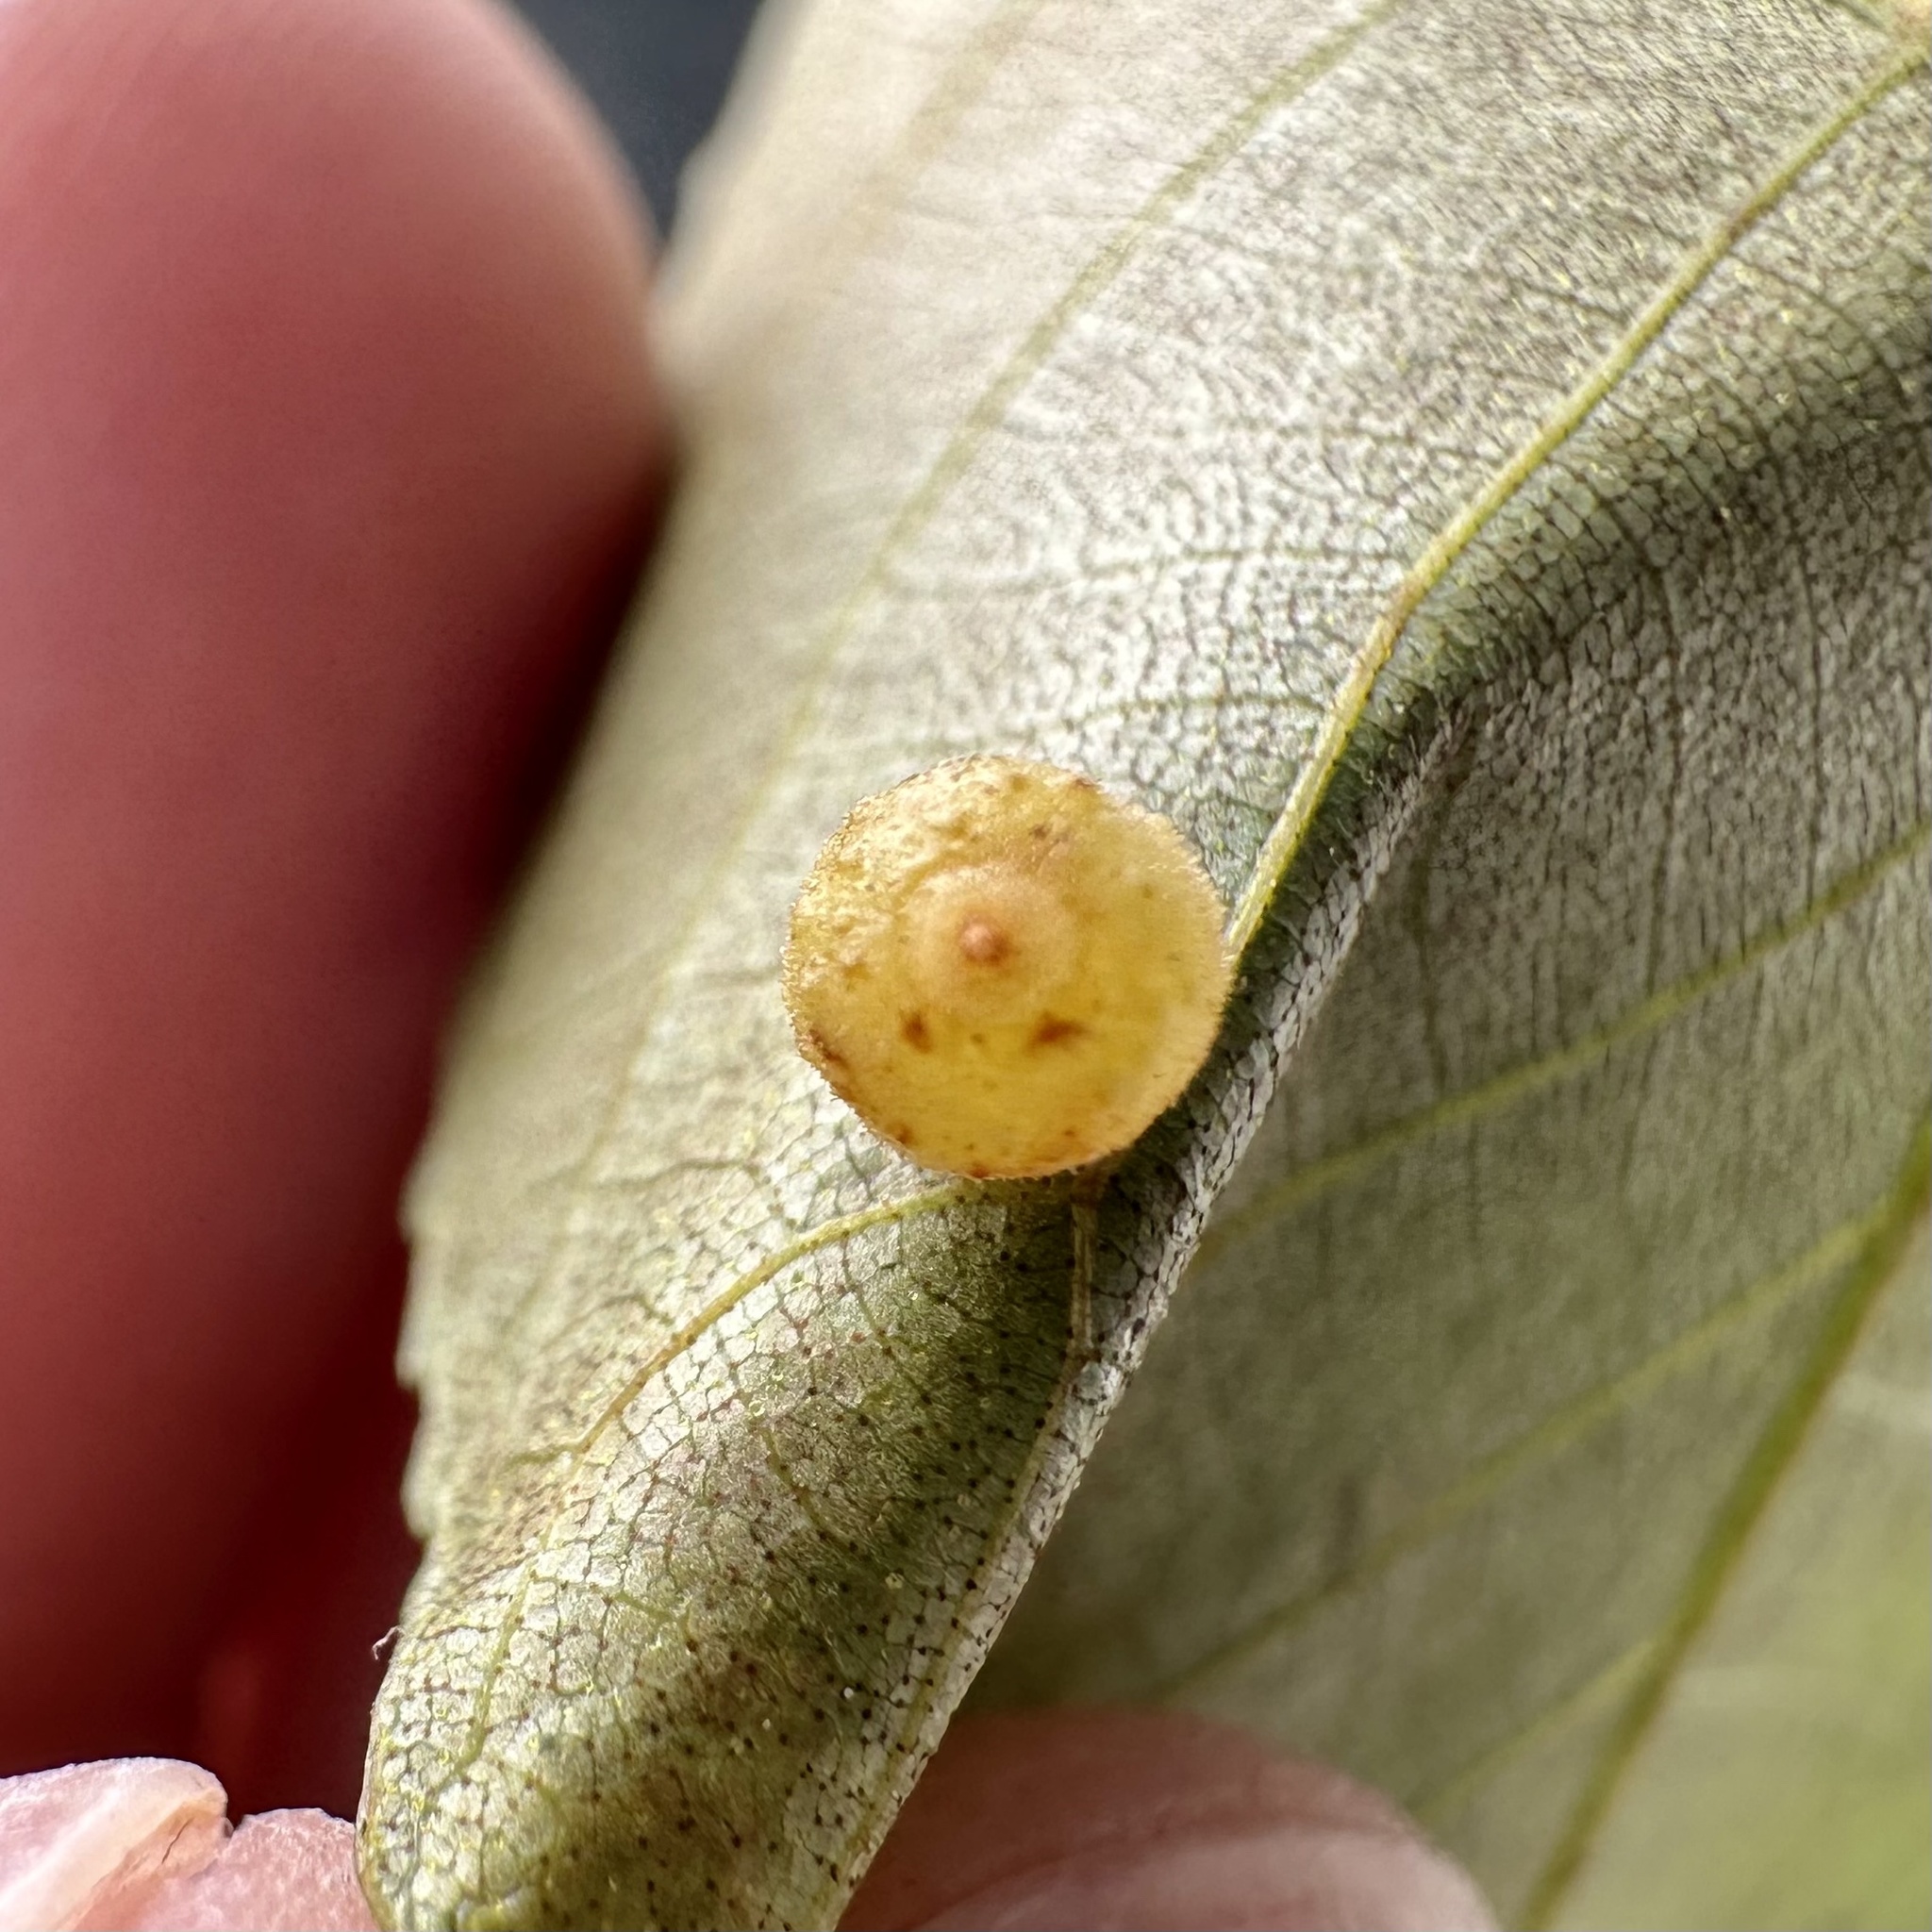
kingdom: Animalia
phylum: Arthropoda
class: Insecta
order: Diptera
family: Cecidomyiidae
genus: Caryomyia
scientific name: Caryomyia tuberidolium
